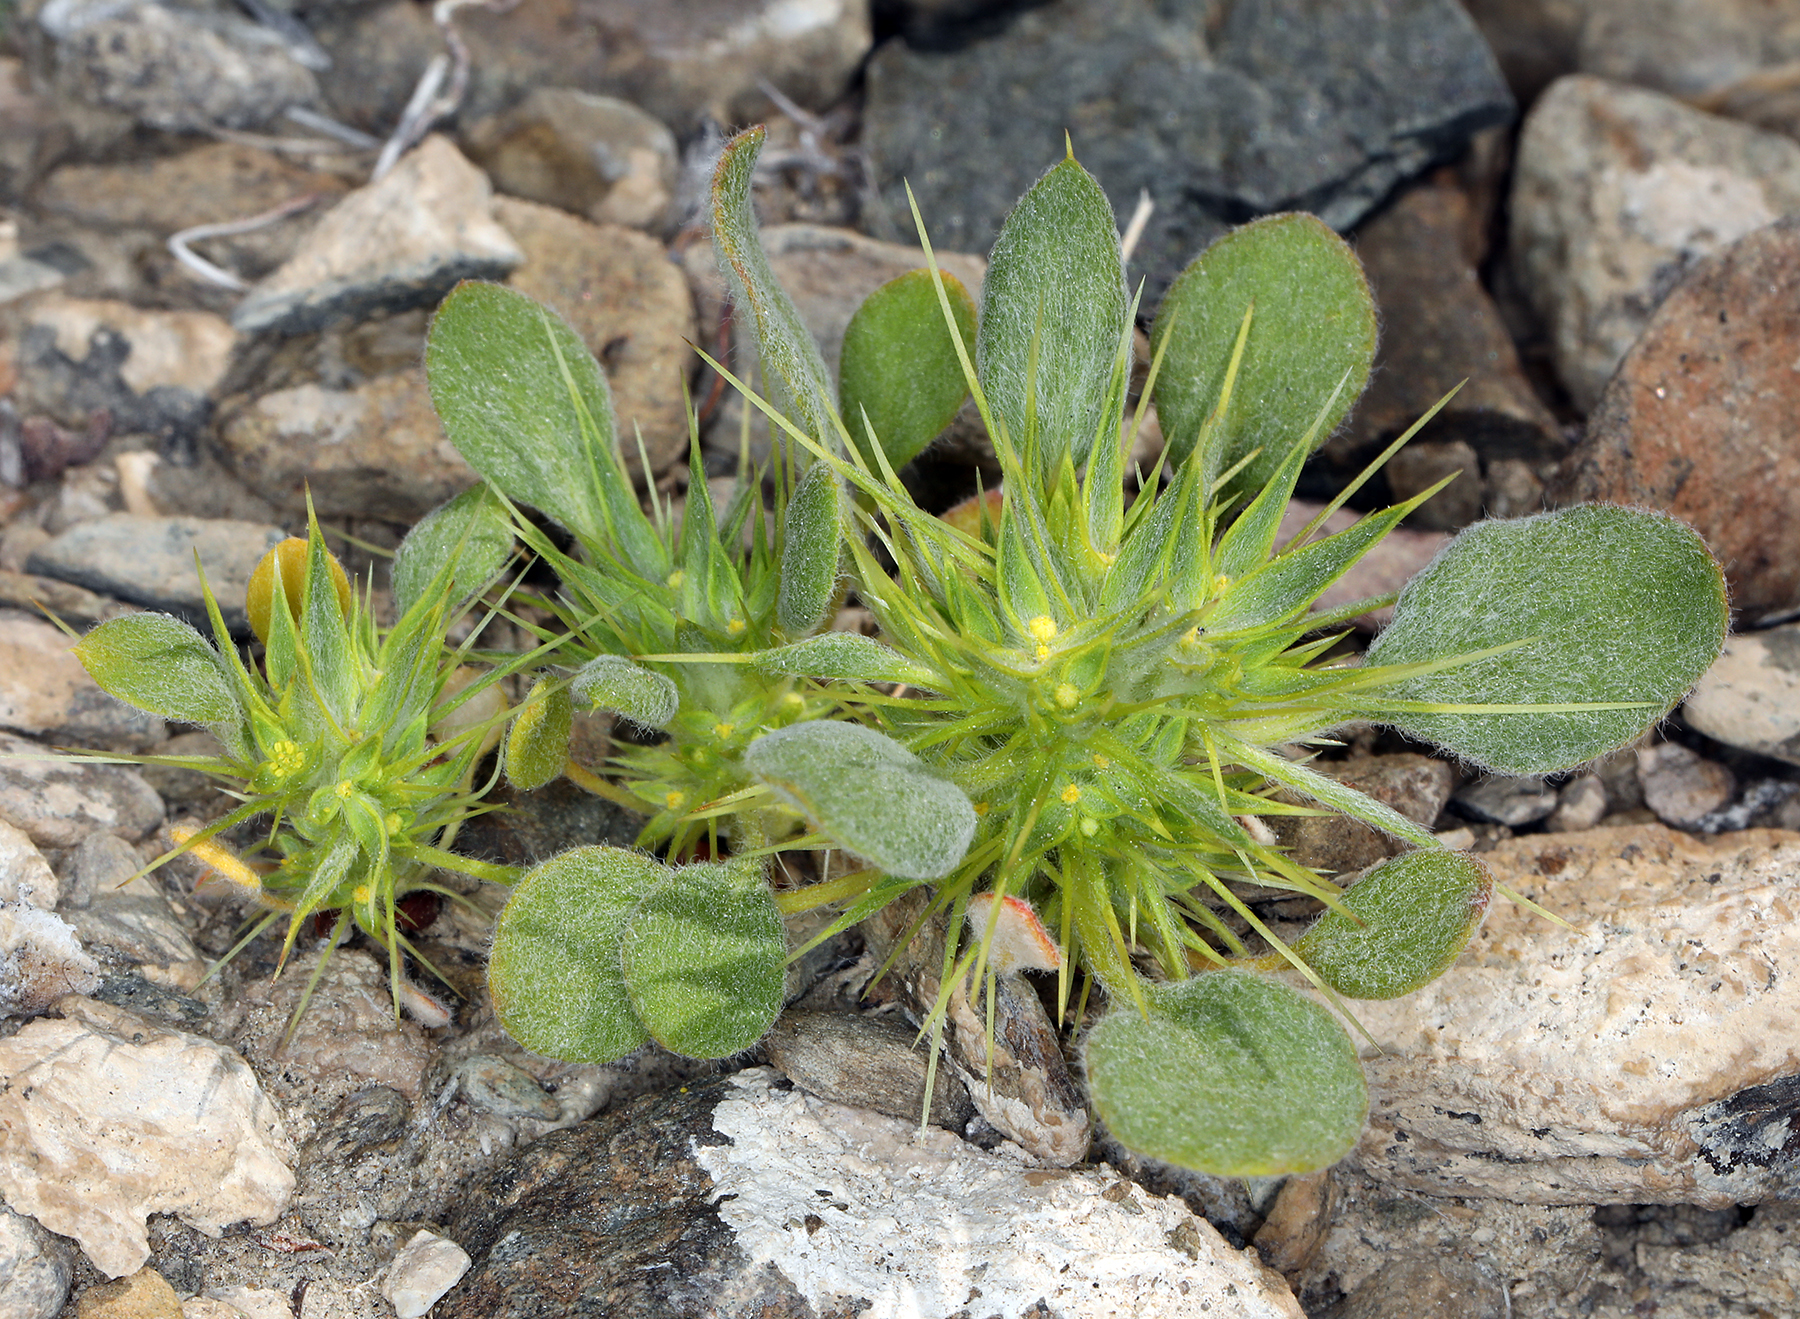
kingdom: Plantae
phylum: Tracheophyta
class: Magnoliopsida
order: Caryophyllales
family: Polygonaceae
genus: Chorizanthe
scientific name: Chorizanthe rigida
